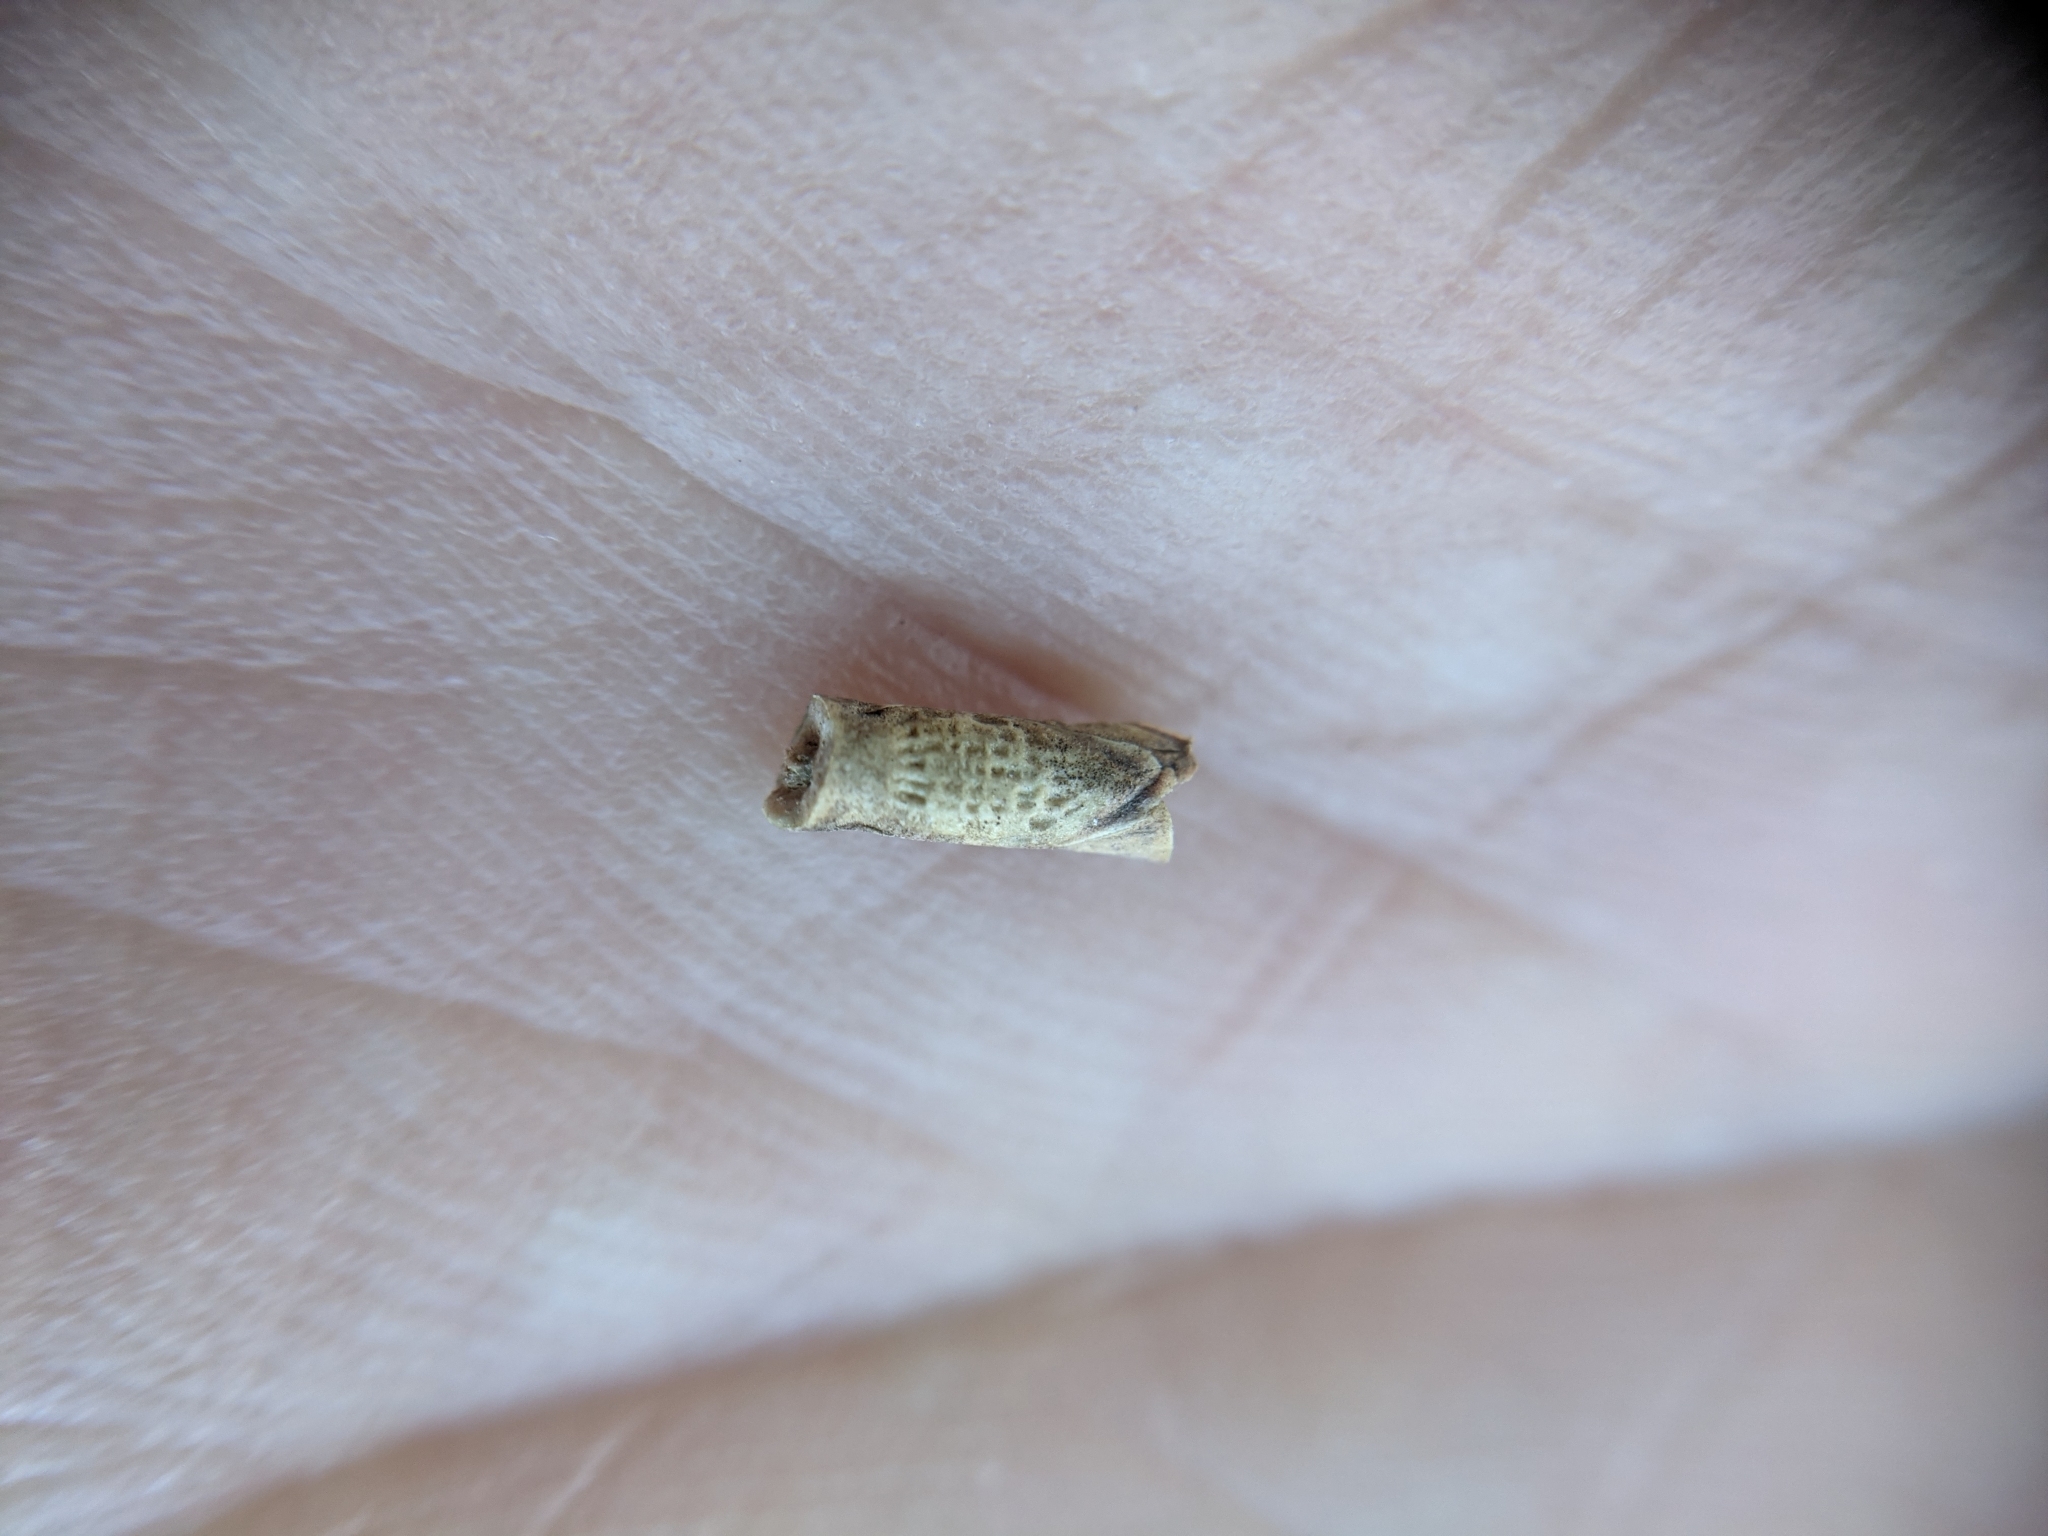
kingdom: Plantae
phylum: Tracheophyta
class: Liliopsida
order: Poales
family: Poaceae
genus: Rottboellia
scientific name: Rottboellia campestris
